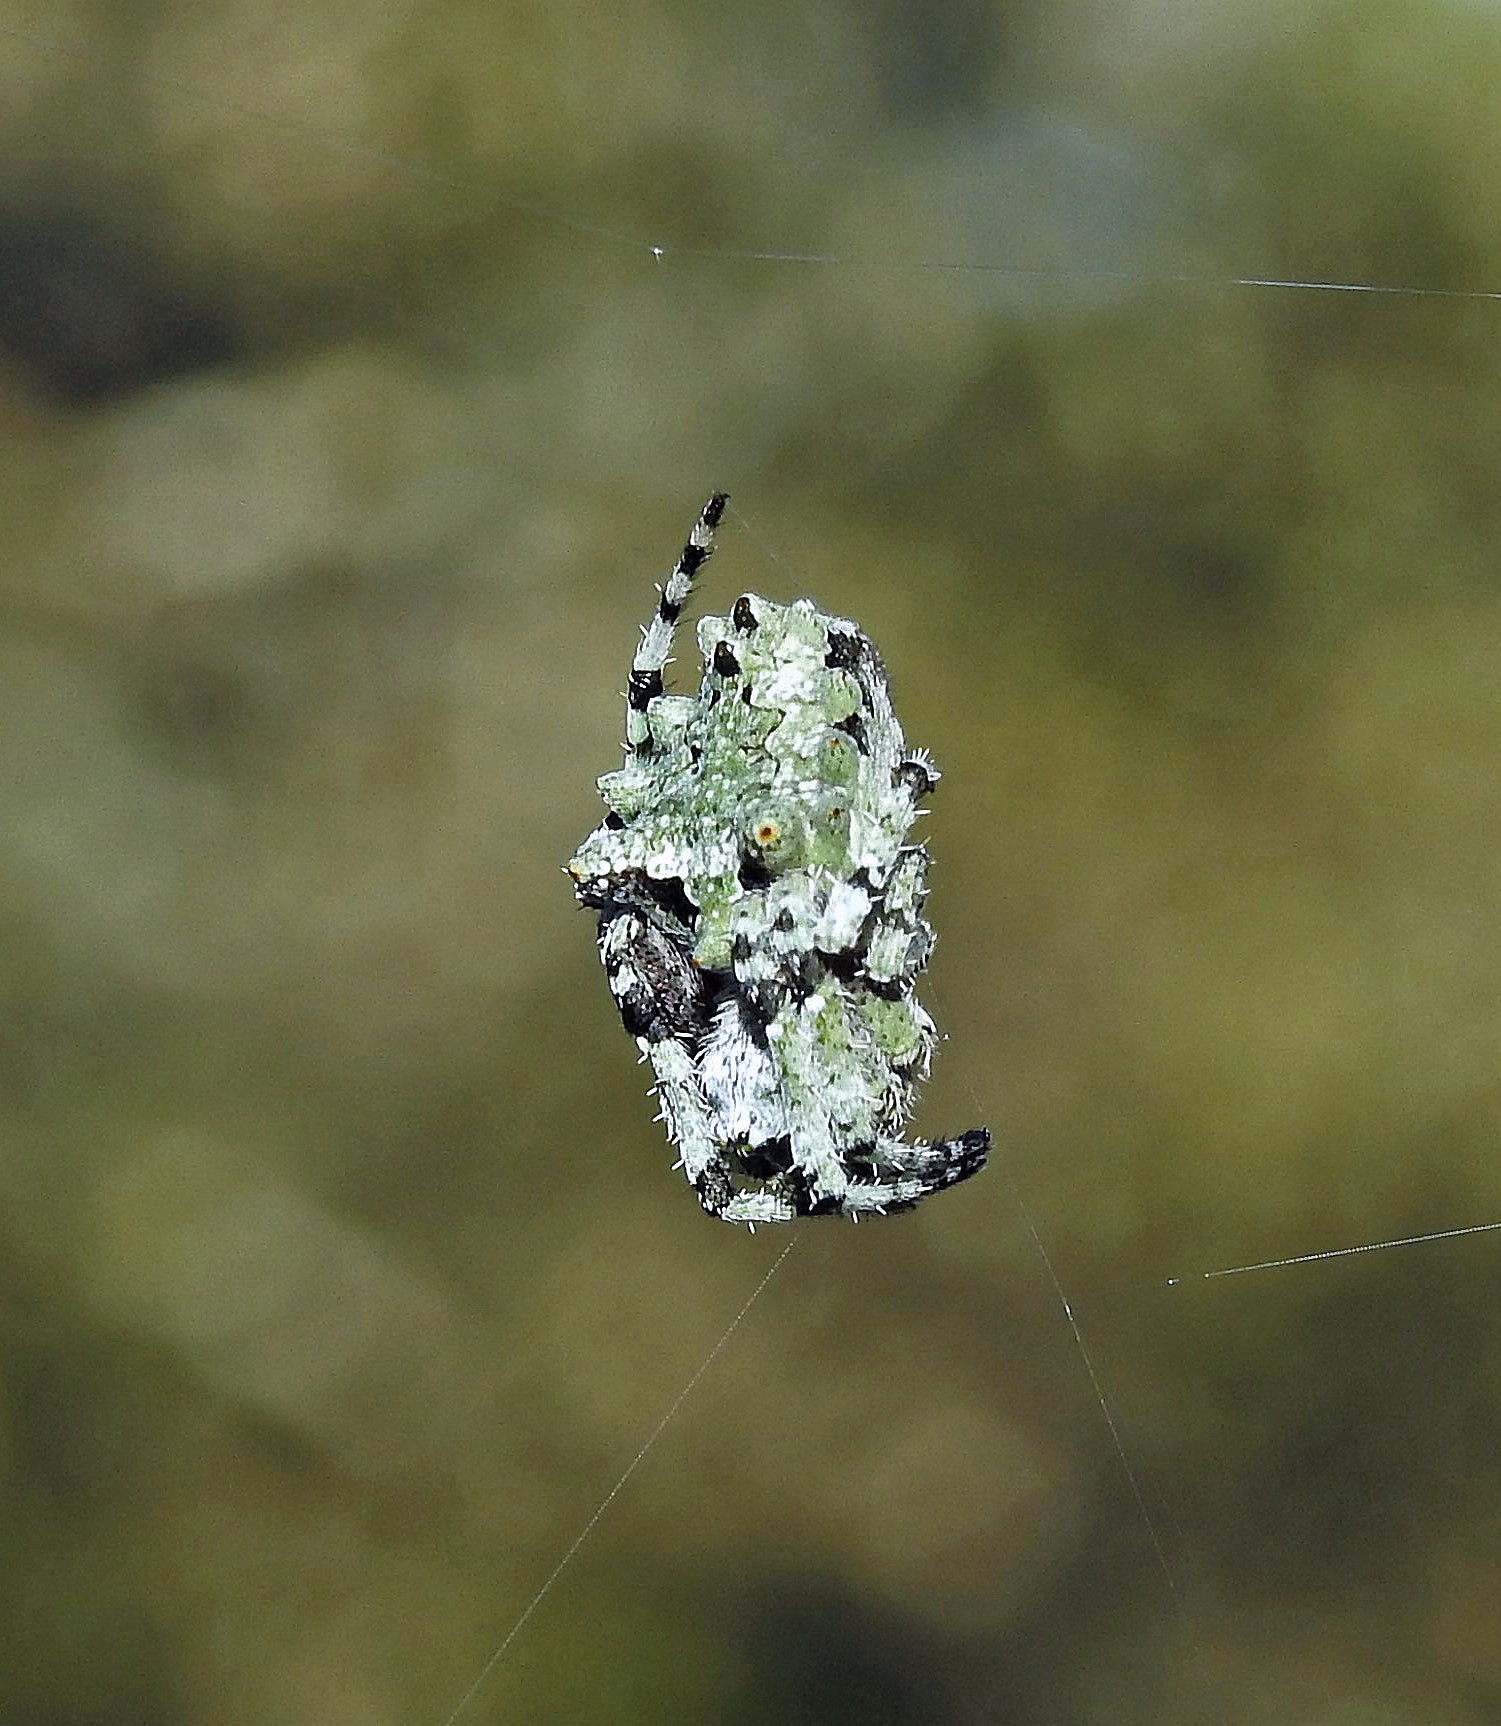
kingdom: Animalia
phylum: Arthropoda
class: Arachnida
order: Araneae
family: Araneidae
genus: Parawixia
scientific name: Parawixia audax
